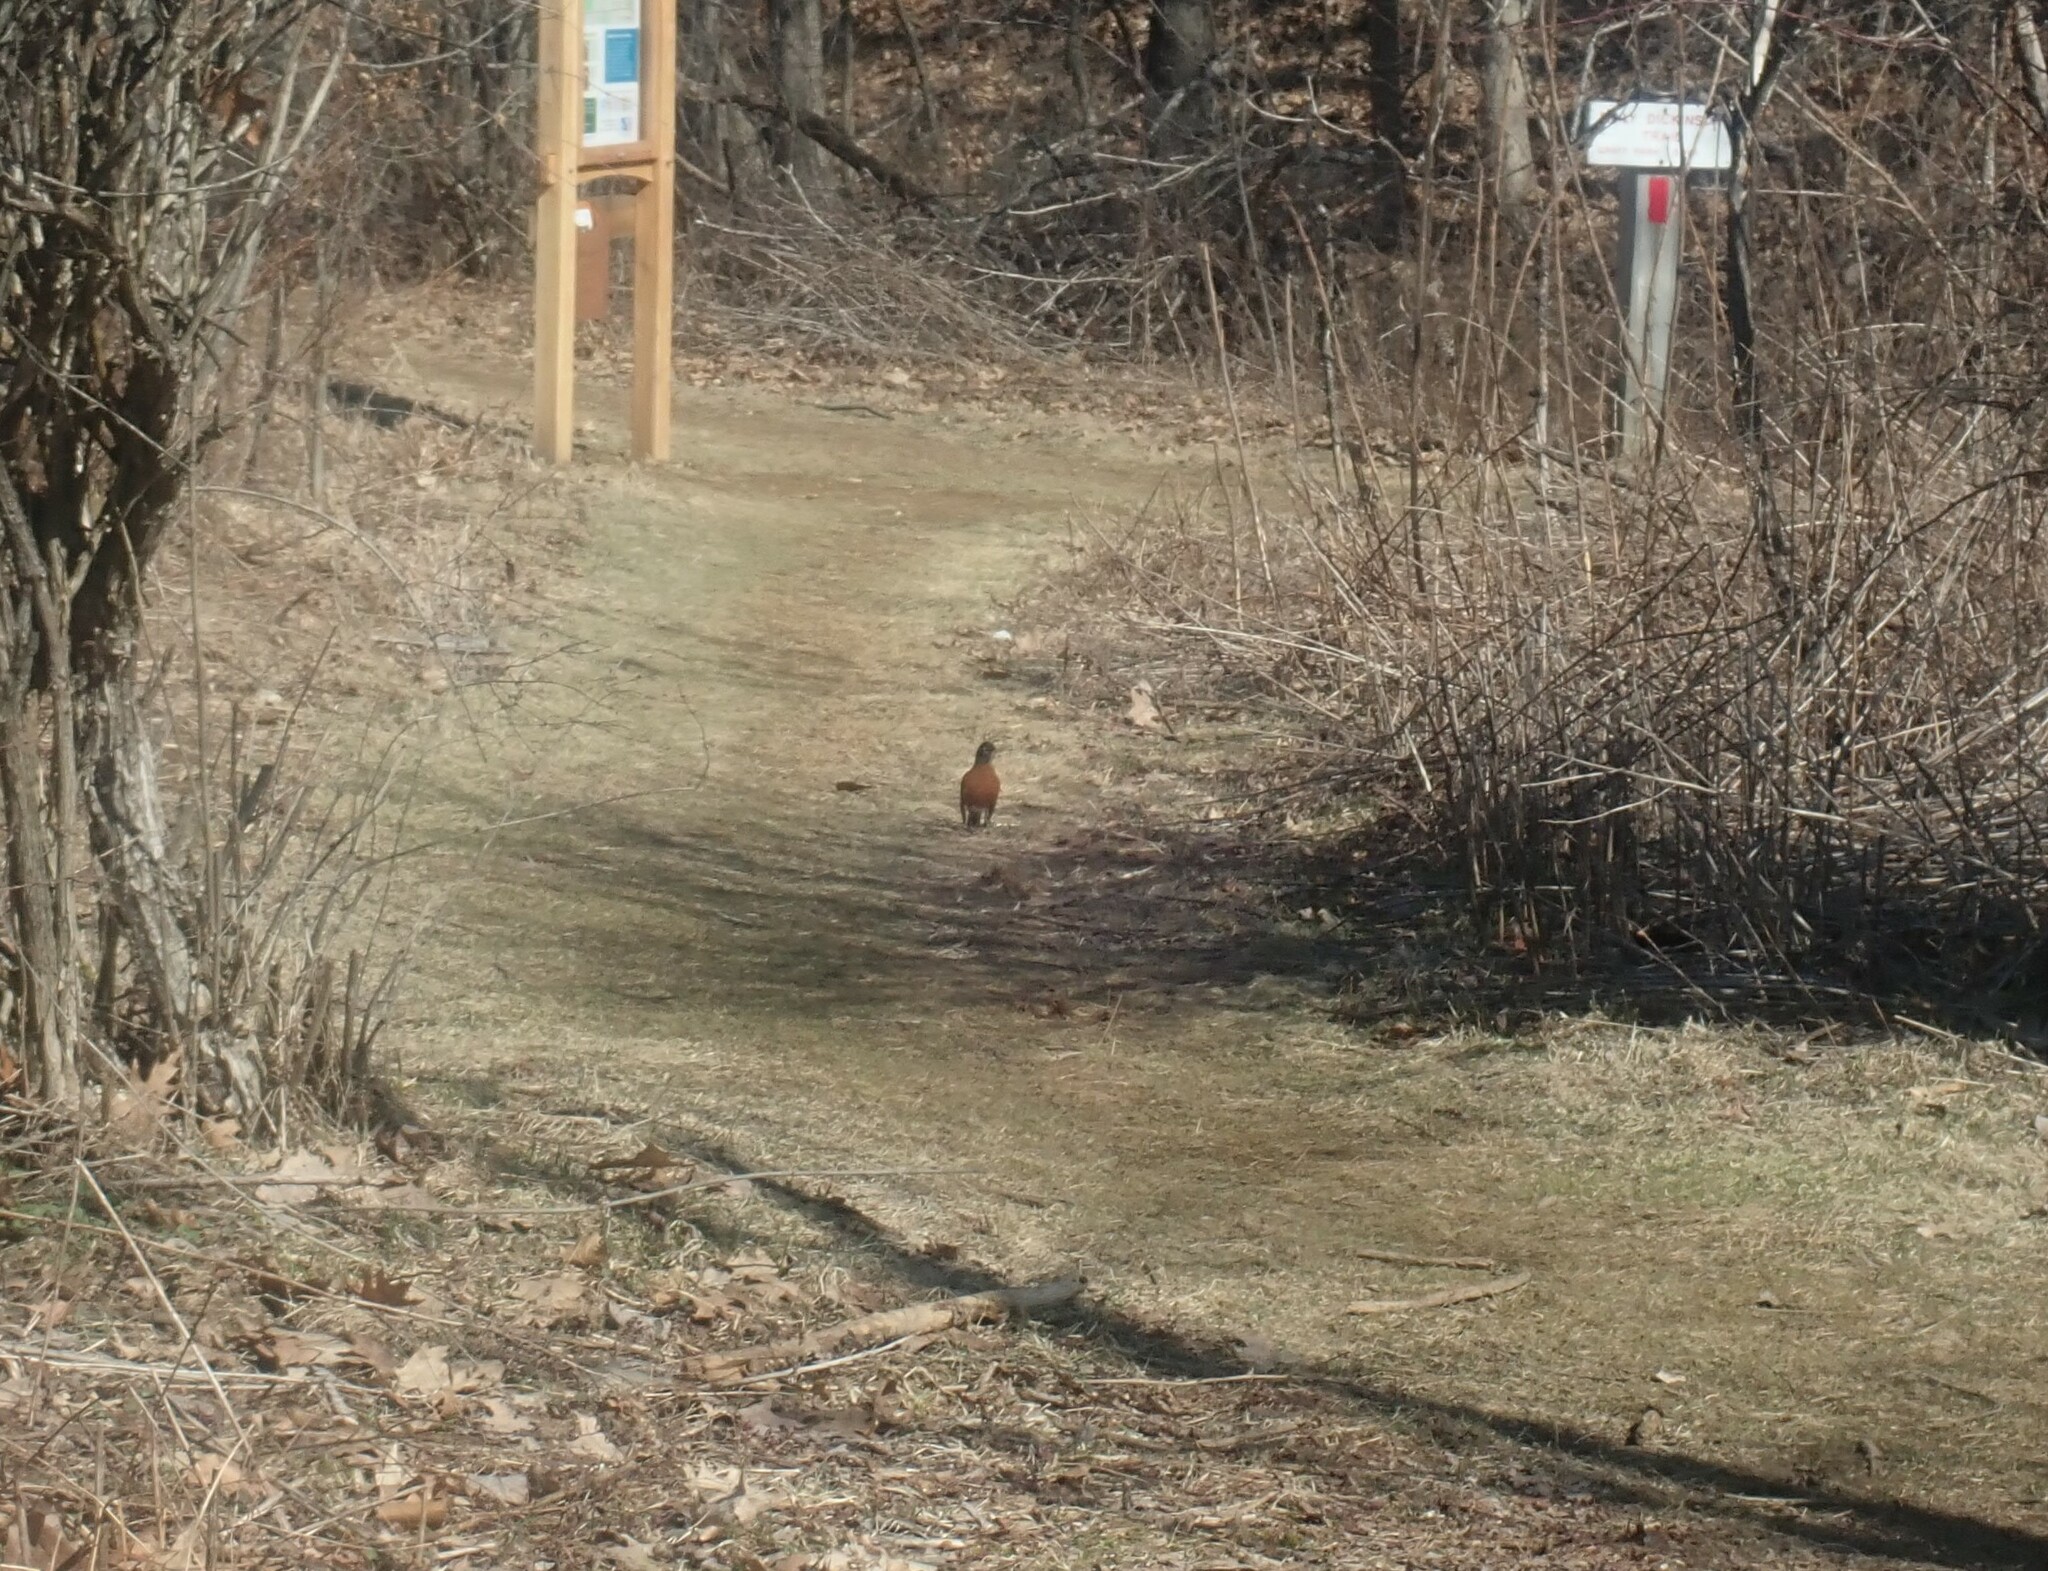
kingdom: Animalia
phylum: Chordata
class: Aves
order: Passeriformes
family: Turdidae
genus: Turdus
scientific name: Turdus migratorius
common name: American robin
